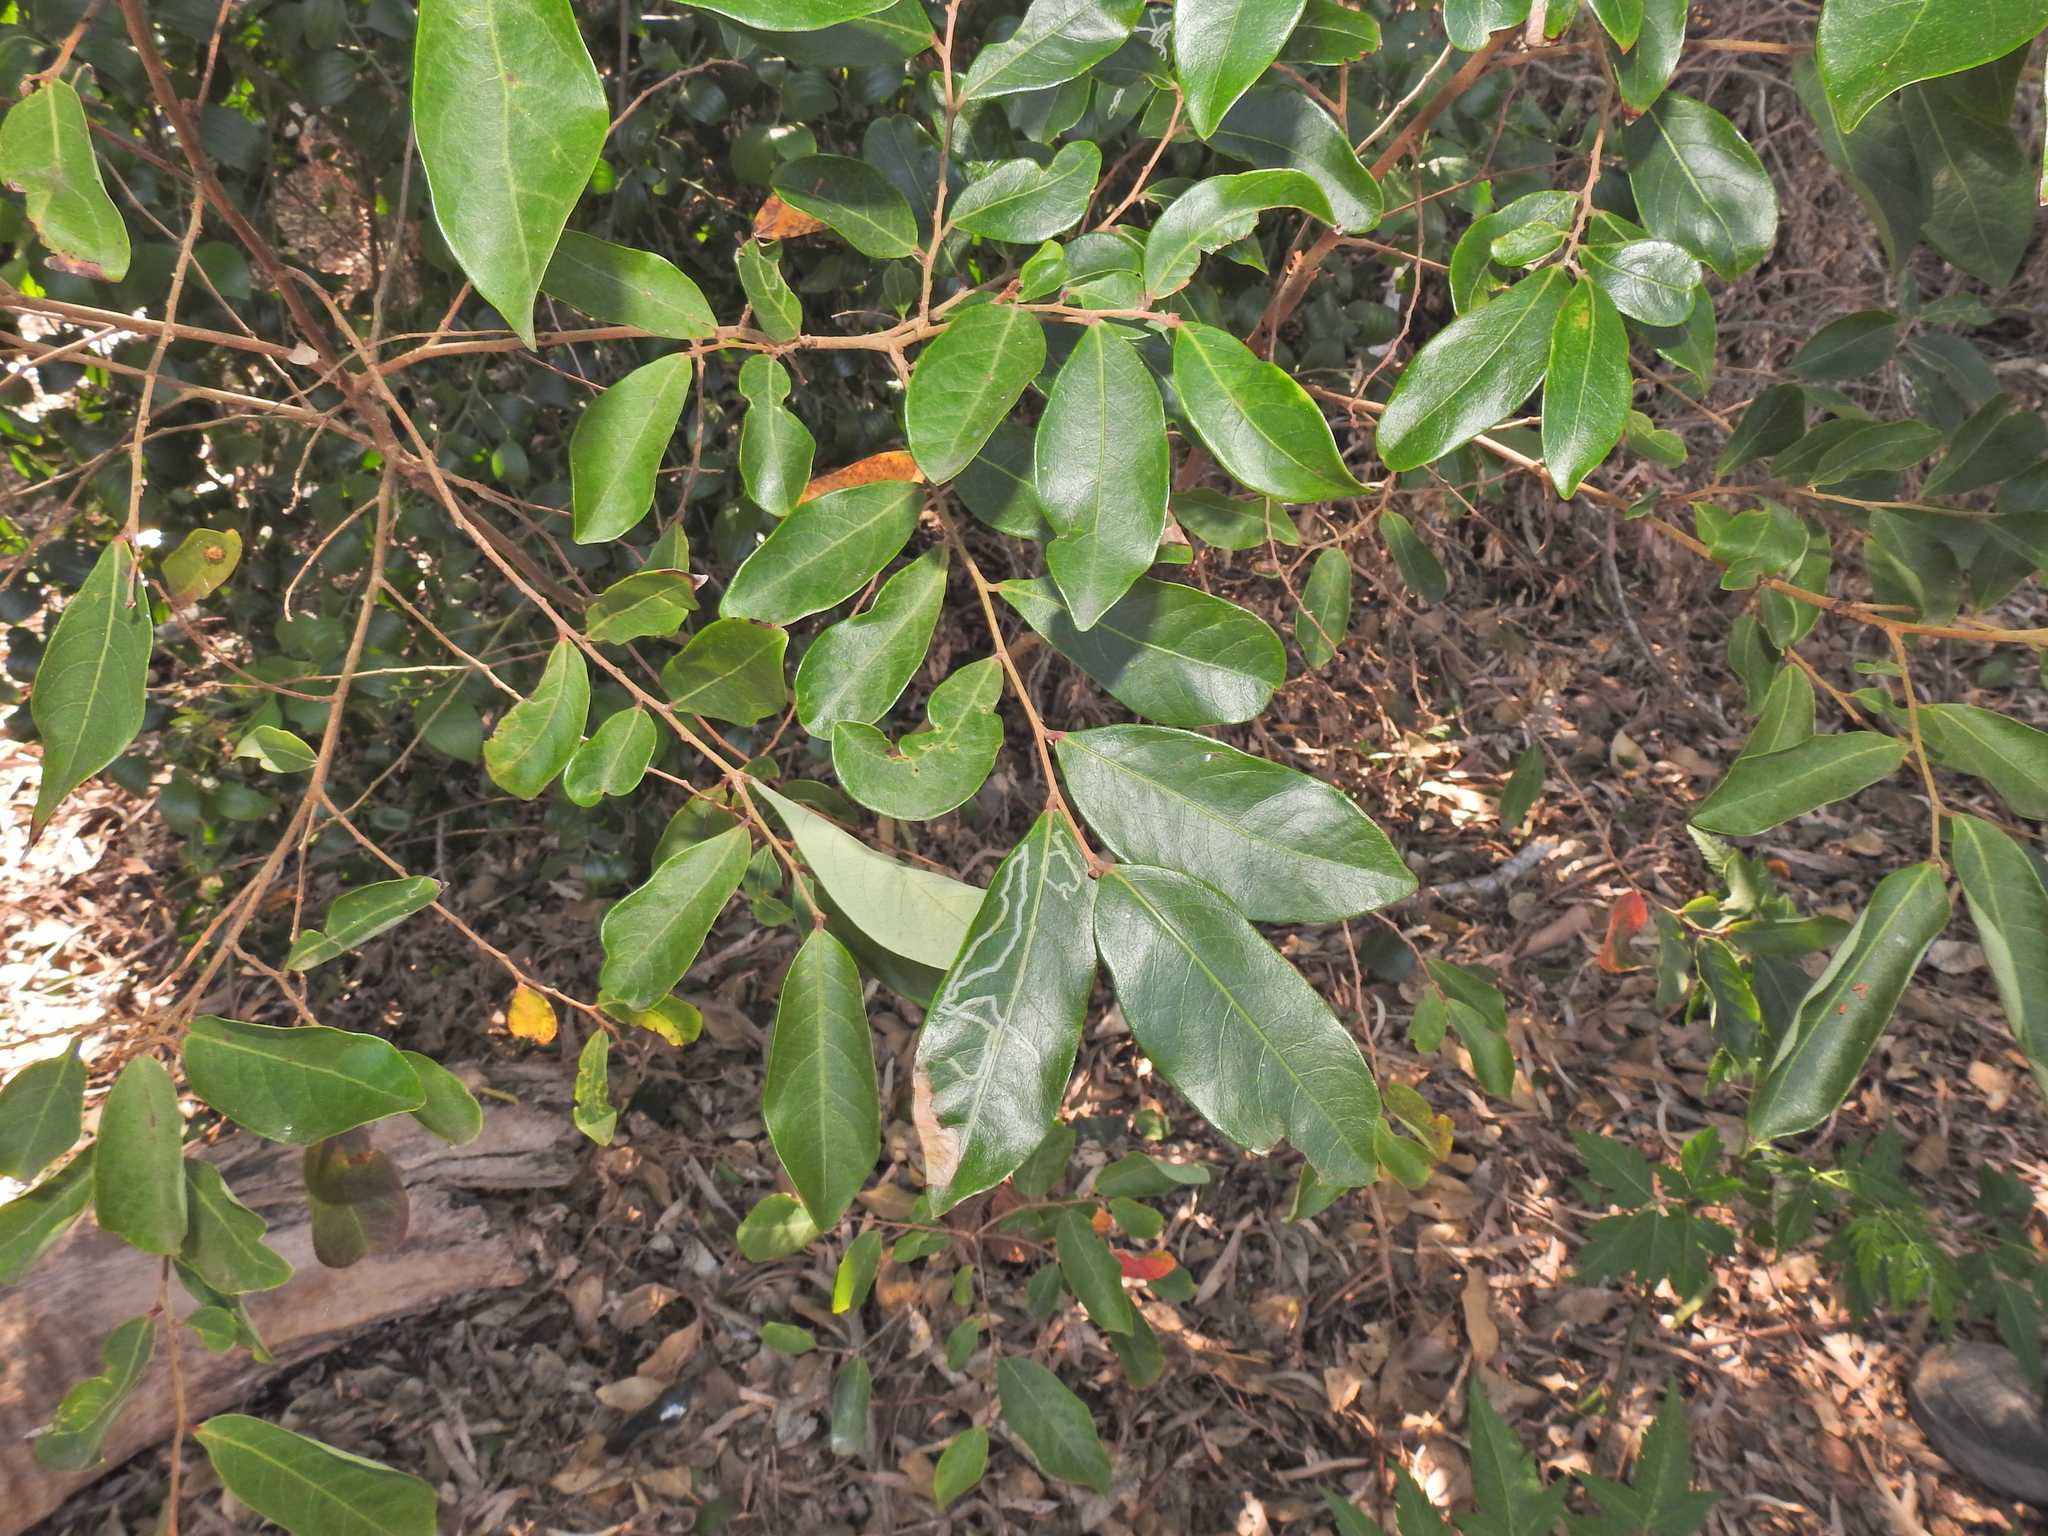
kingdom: Plantae
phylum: Tracheophyta
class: Magnoliopsida
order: Malpighiales
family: Phyllanthaceae
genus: Glochidion
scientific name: Glochidion lobocarpum
